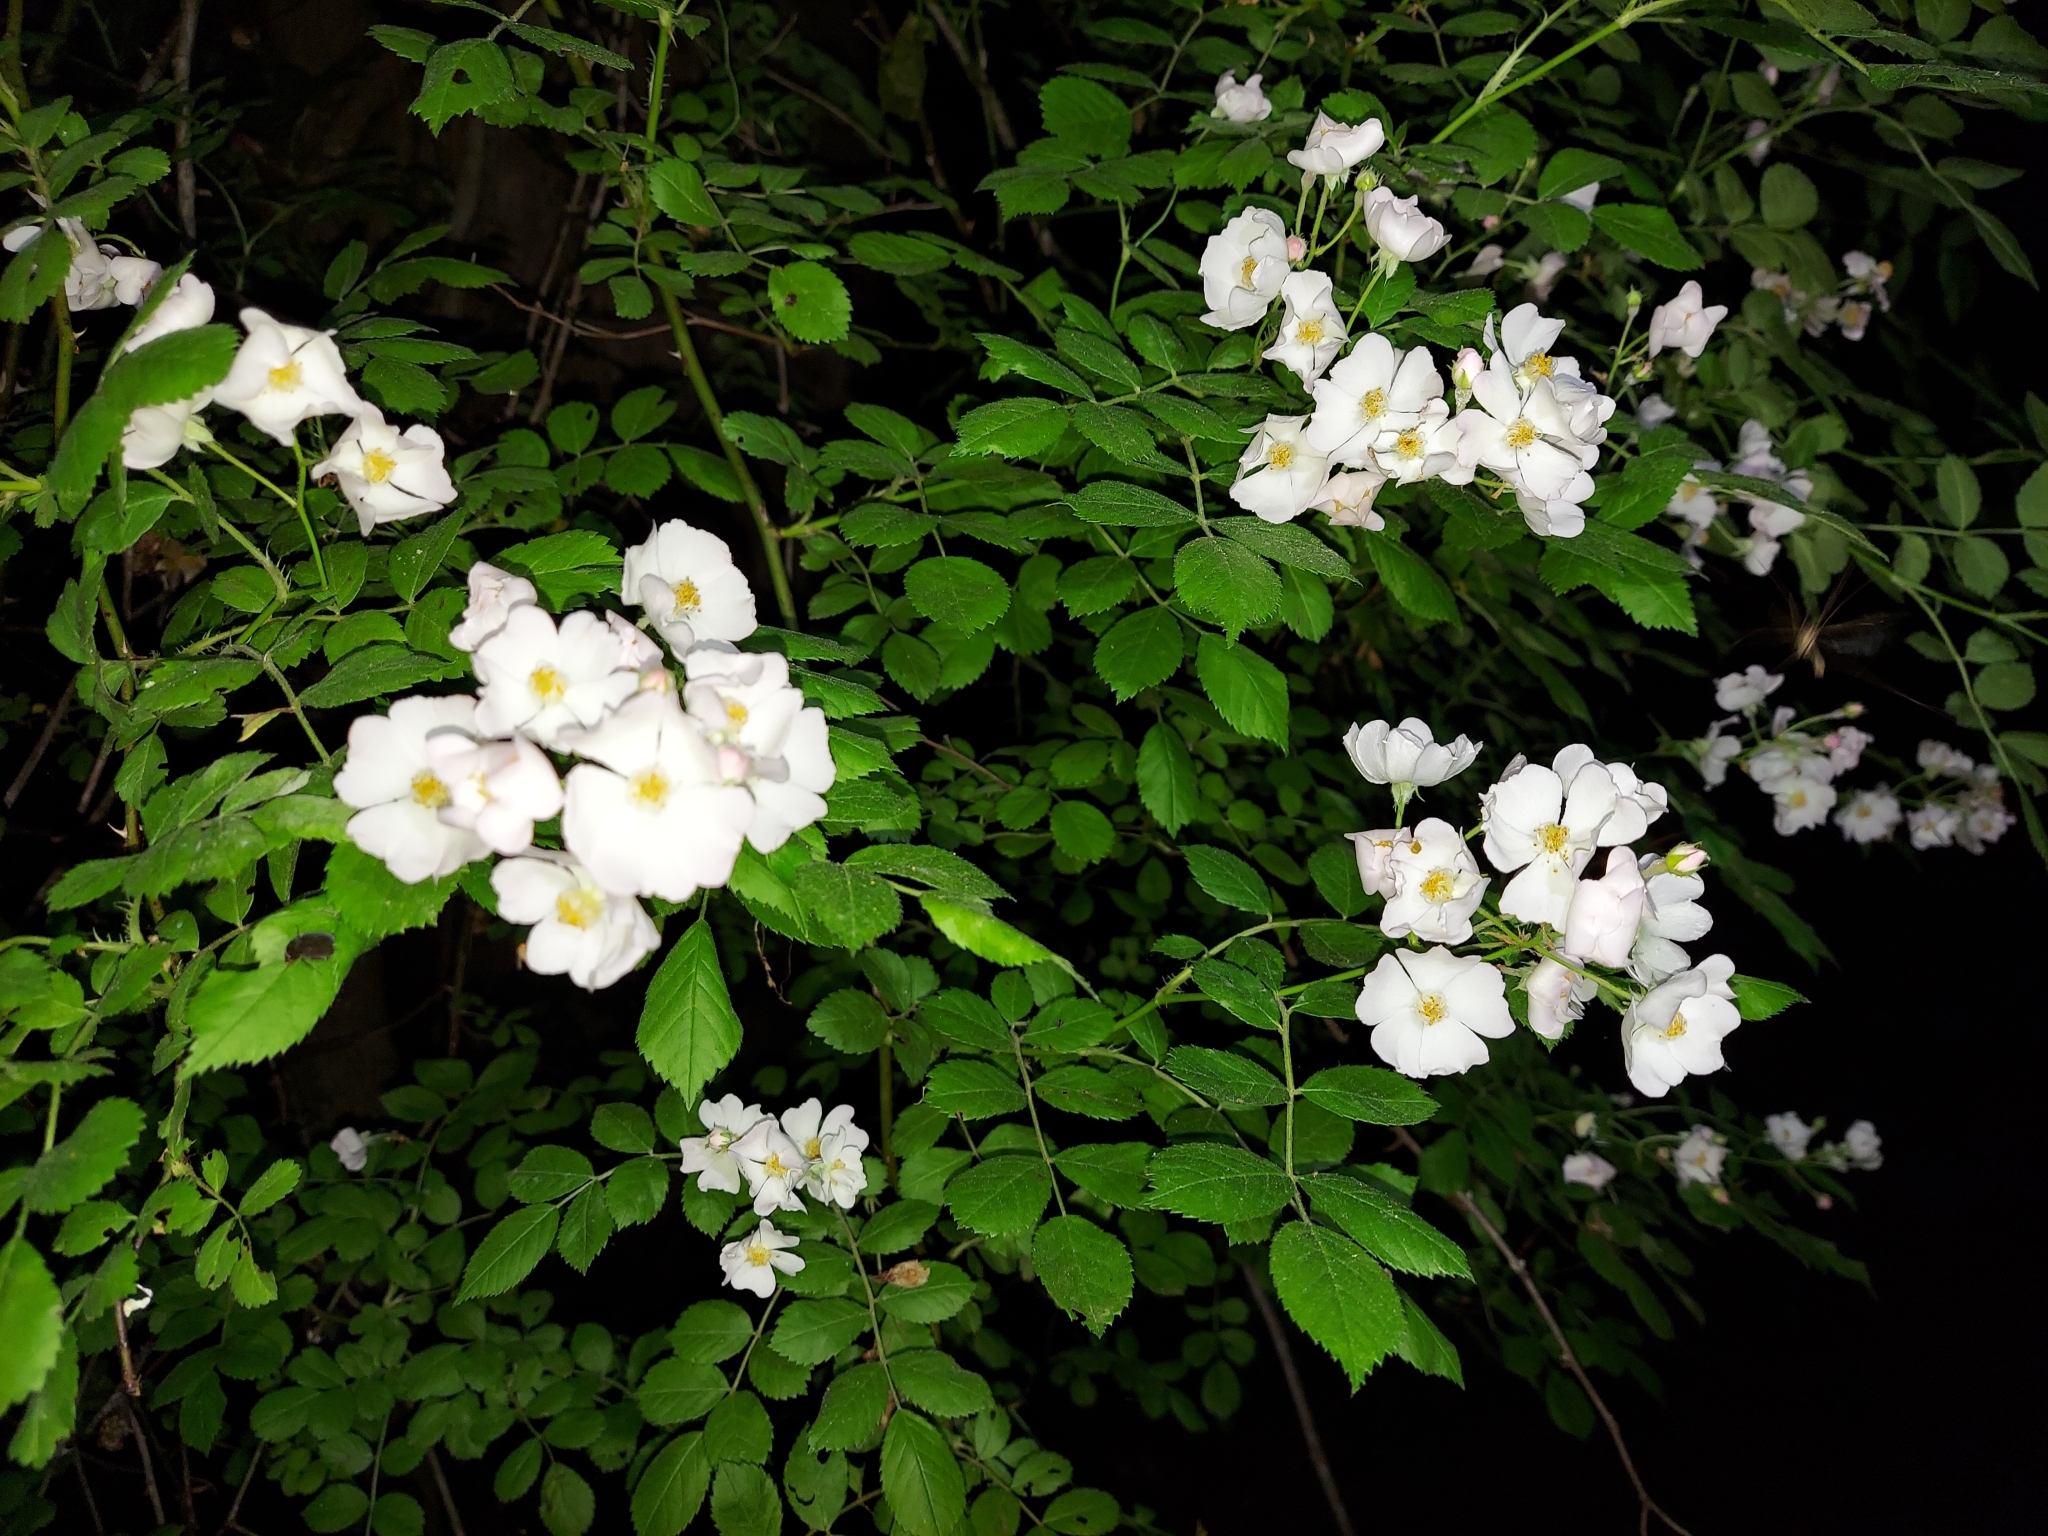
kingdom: Plantae
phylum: Tracheophyta
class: Magnoliopsida
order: Rosales
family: Rosaceae
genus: Rosa
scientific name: Rosa multiflora
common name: Multiflora rose
